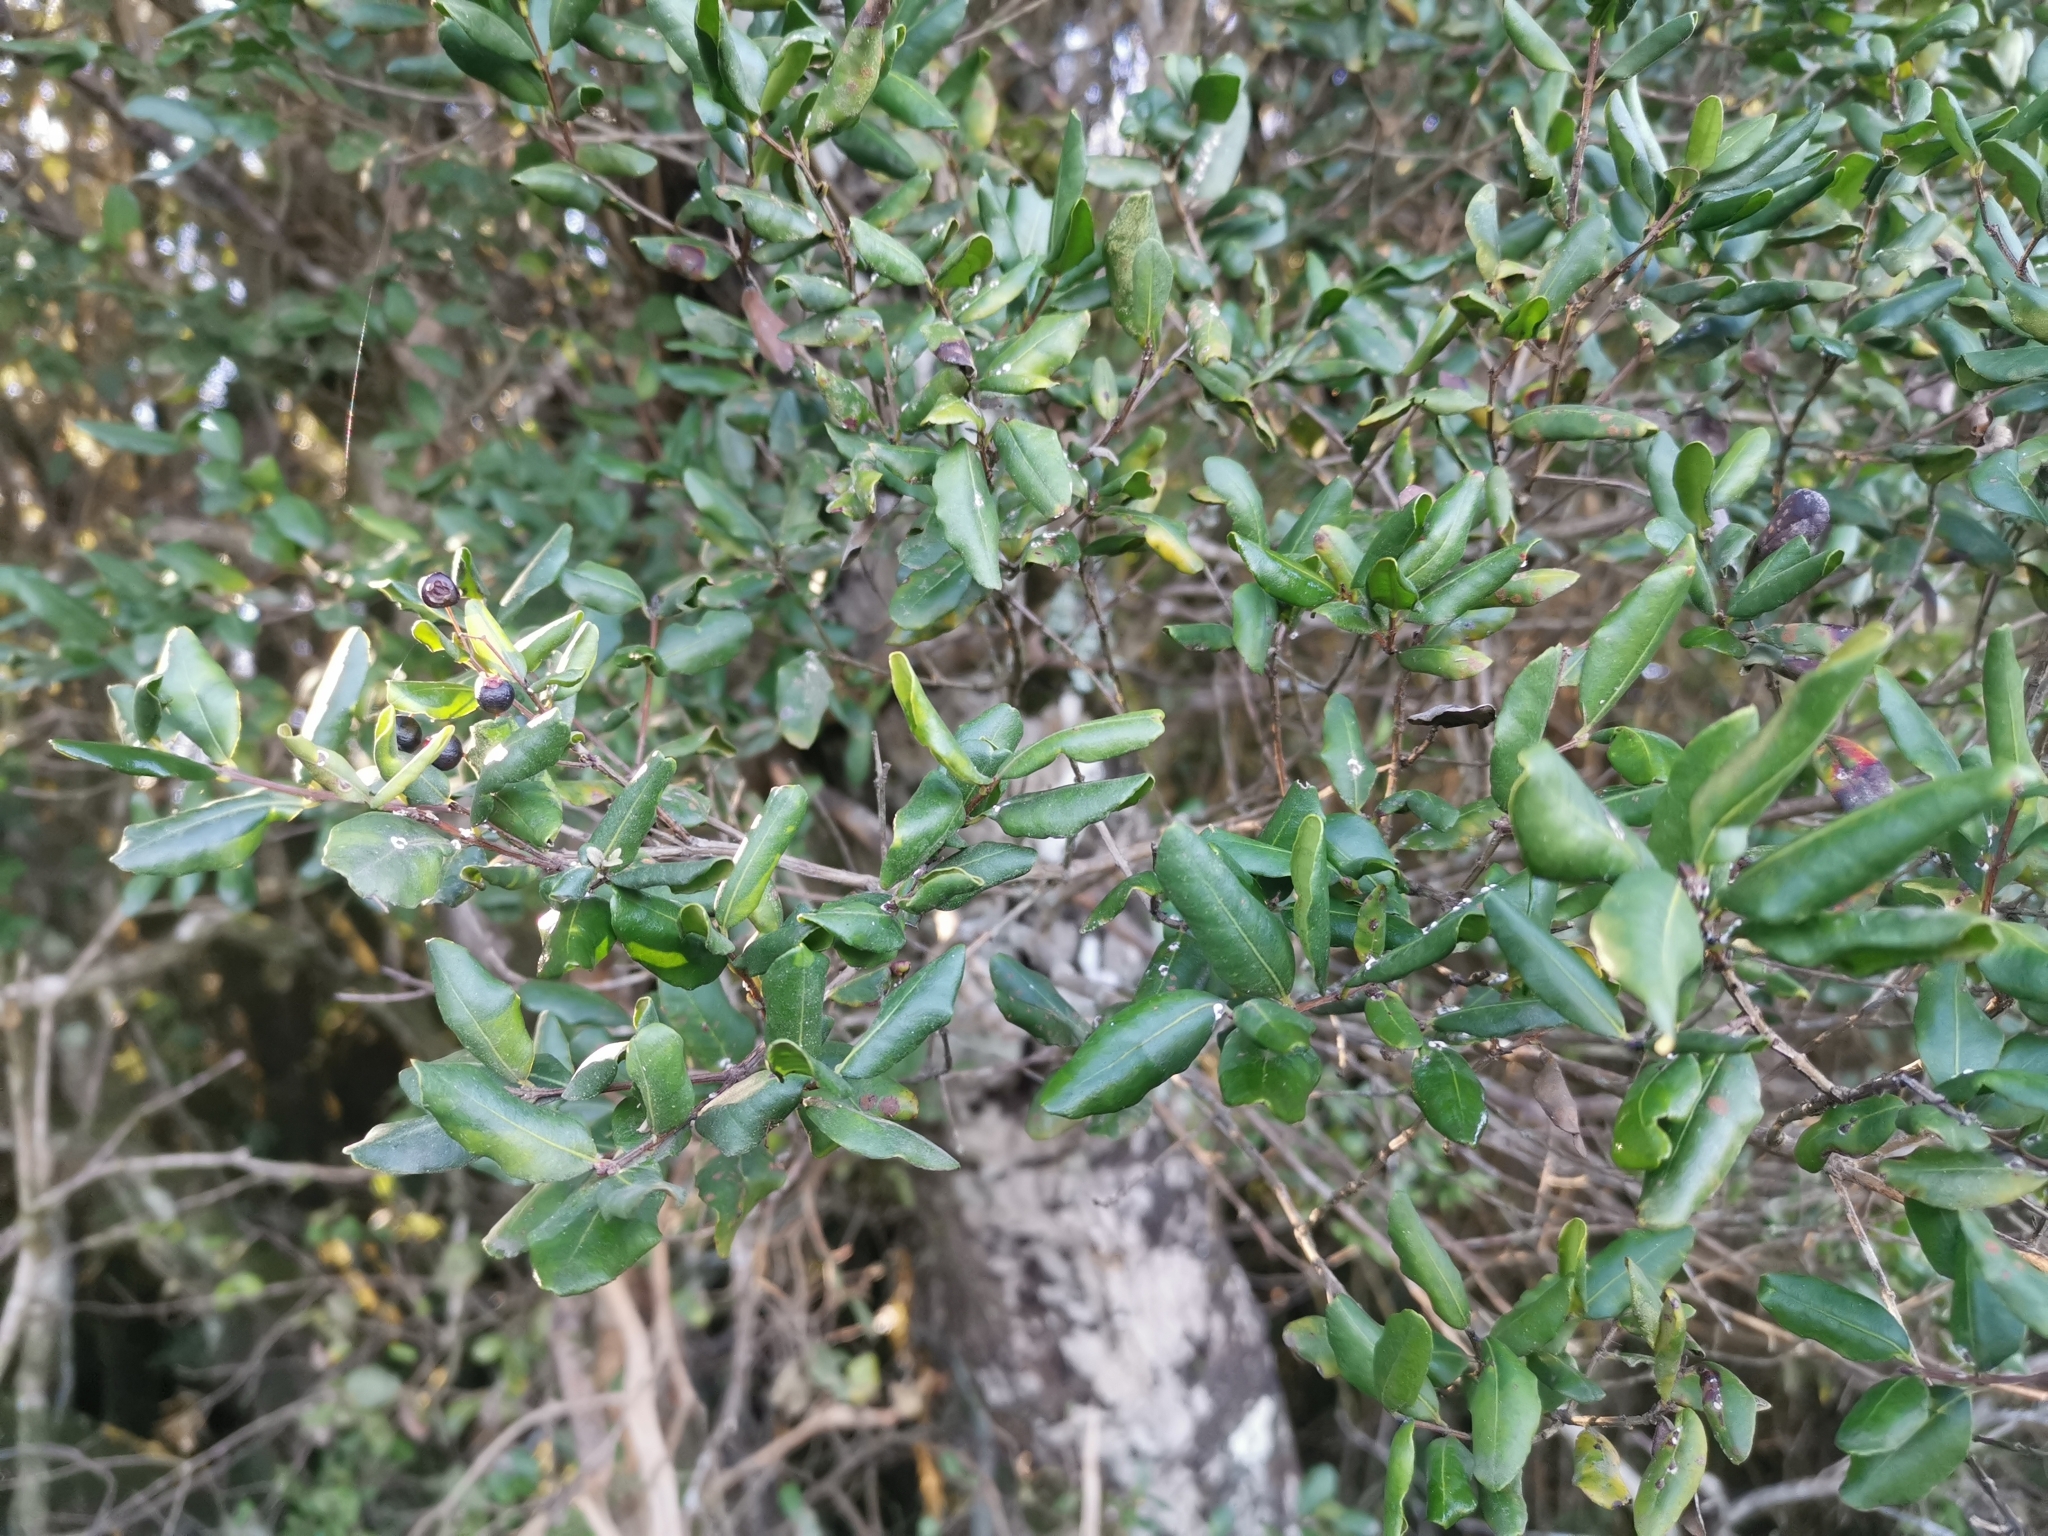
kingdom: Plantae
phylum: Tracheophyta
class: Magnoliopsida
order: Myrtales
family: Myrtaceae
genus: Blepharocalyx
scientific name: Blepharocalyx cruckshanksii
